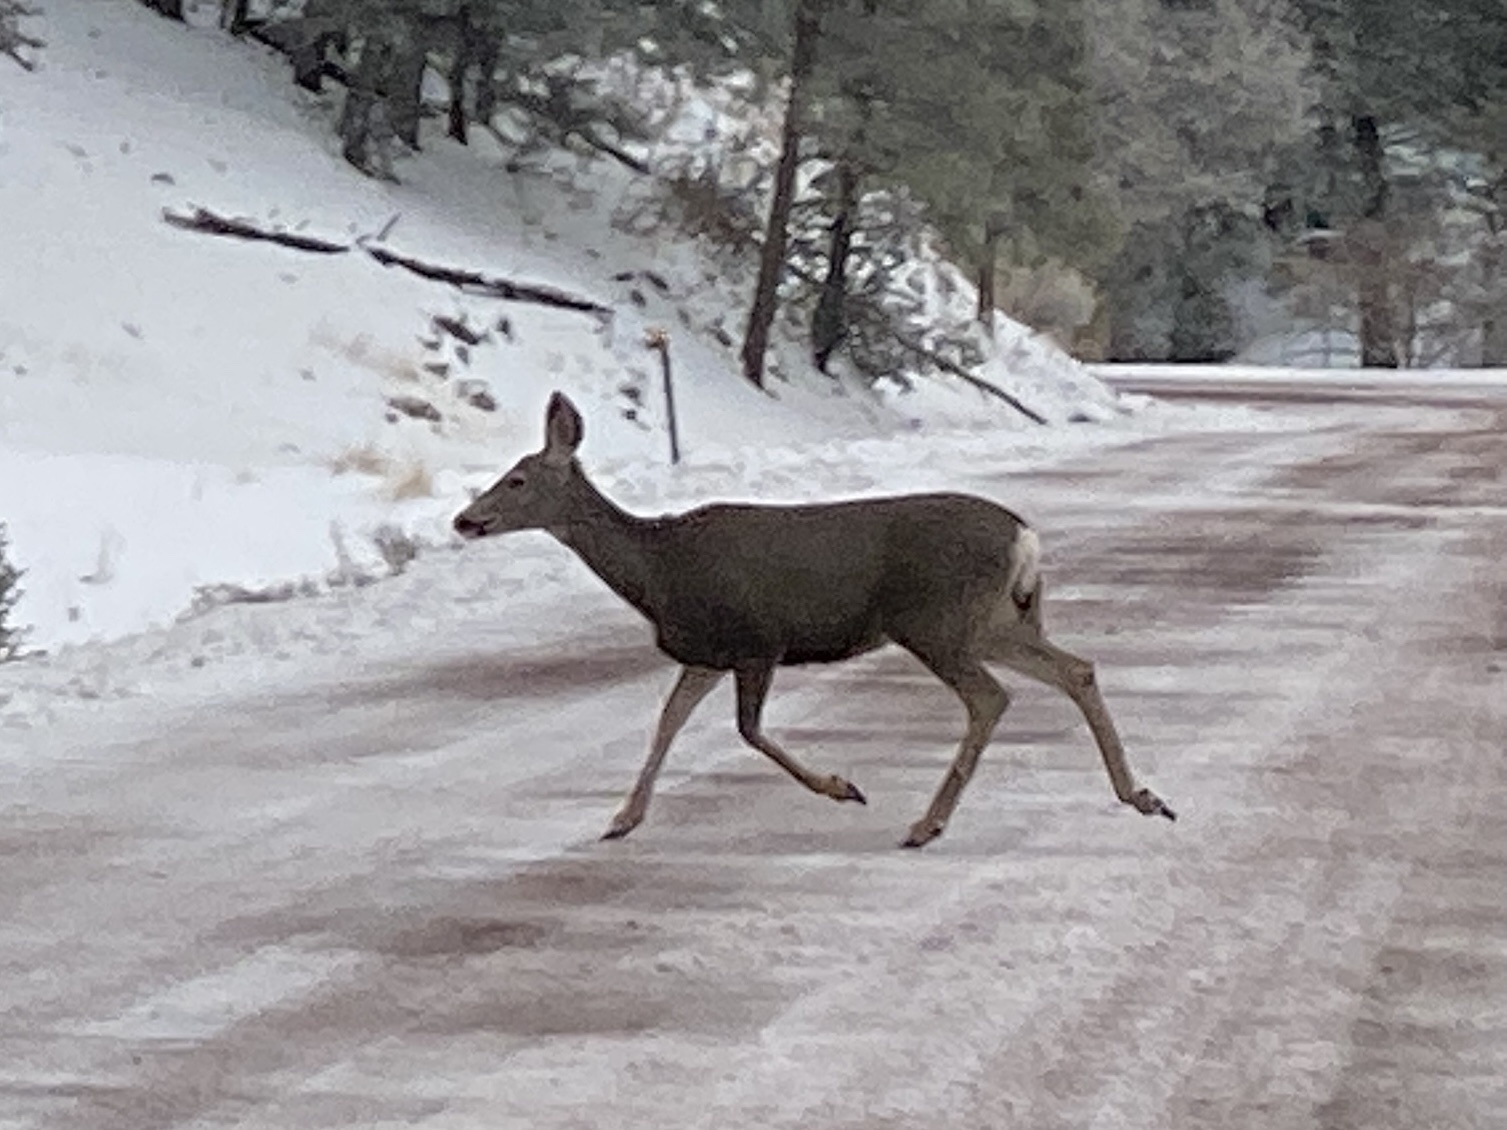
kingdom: Animalia
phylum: Chordata
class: Mammalia
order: Artiodactyla
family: Cervidae
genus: Odocoileus
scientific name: Odocoileus hemionus
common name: Mule deer
